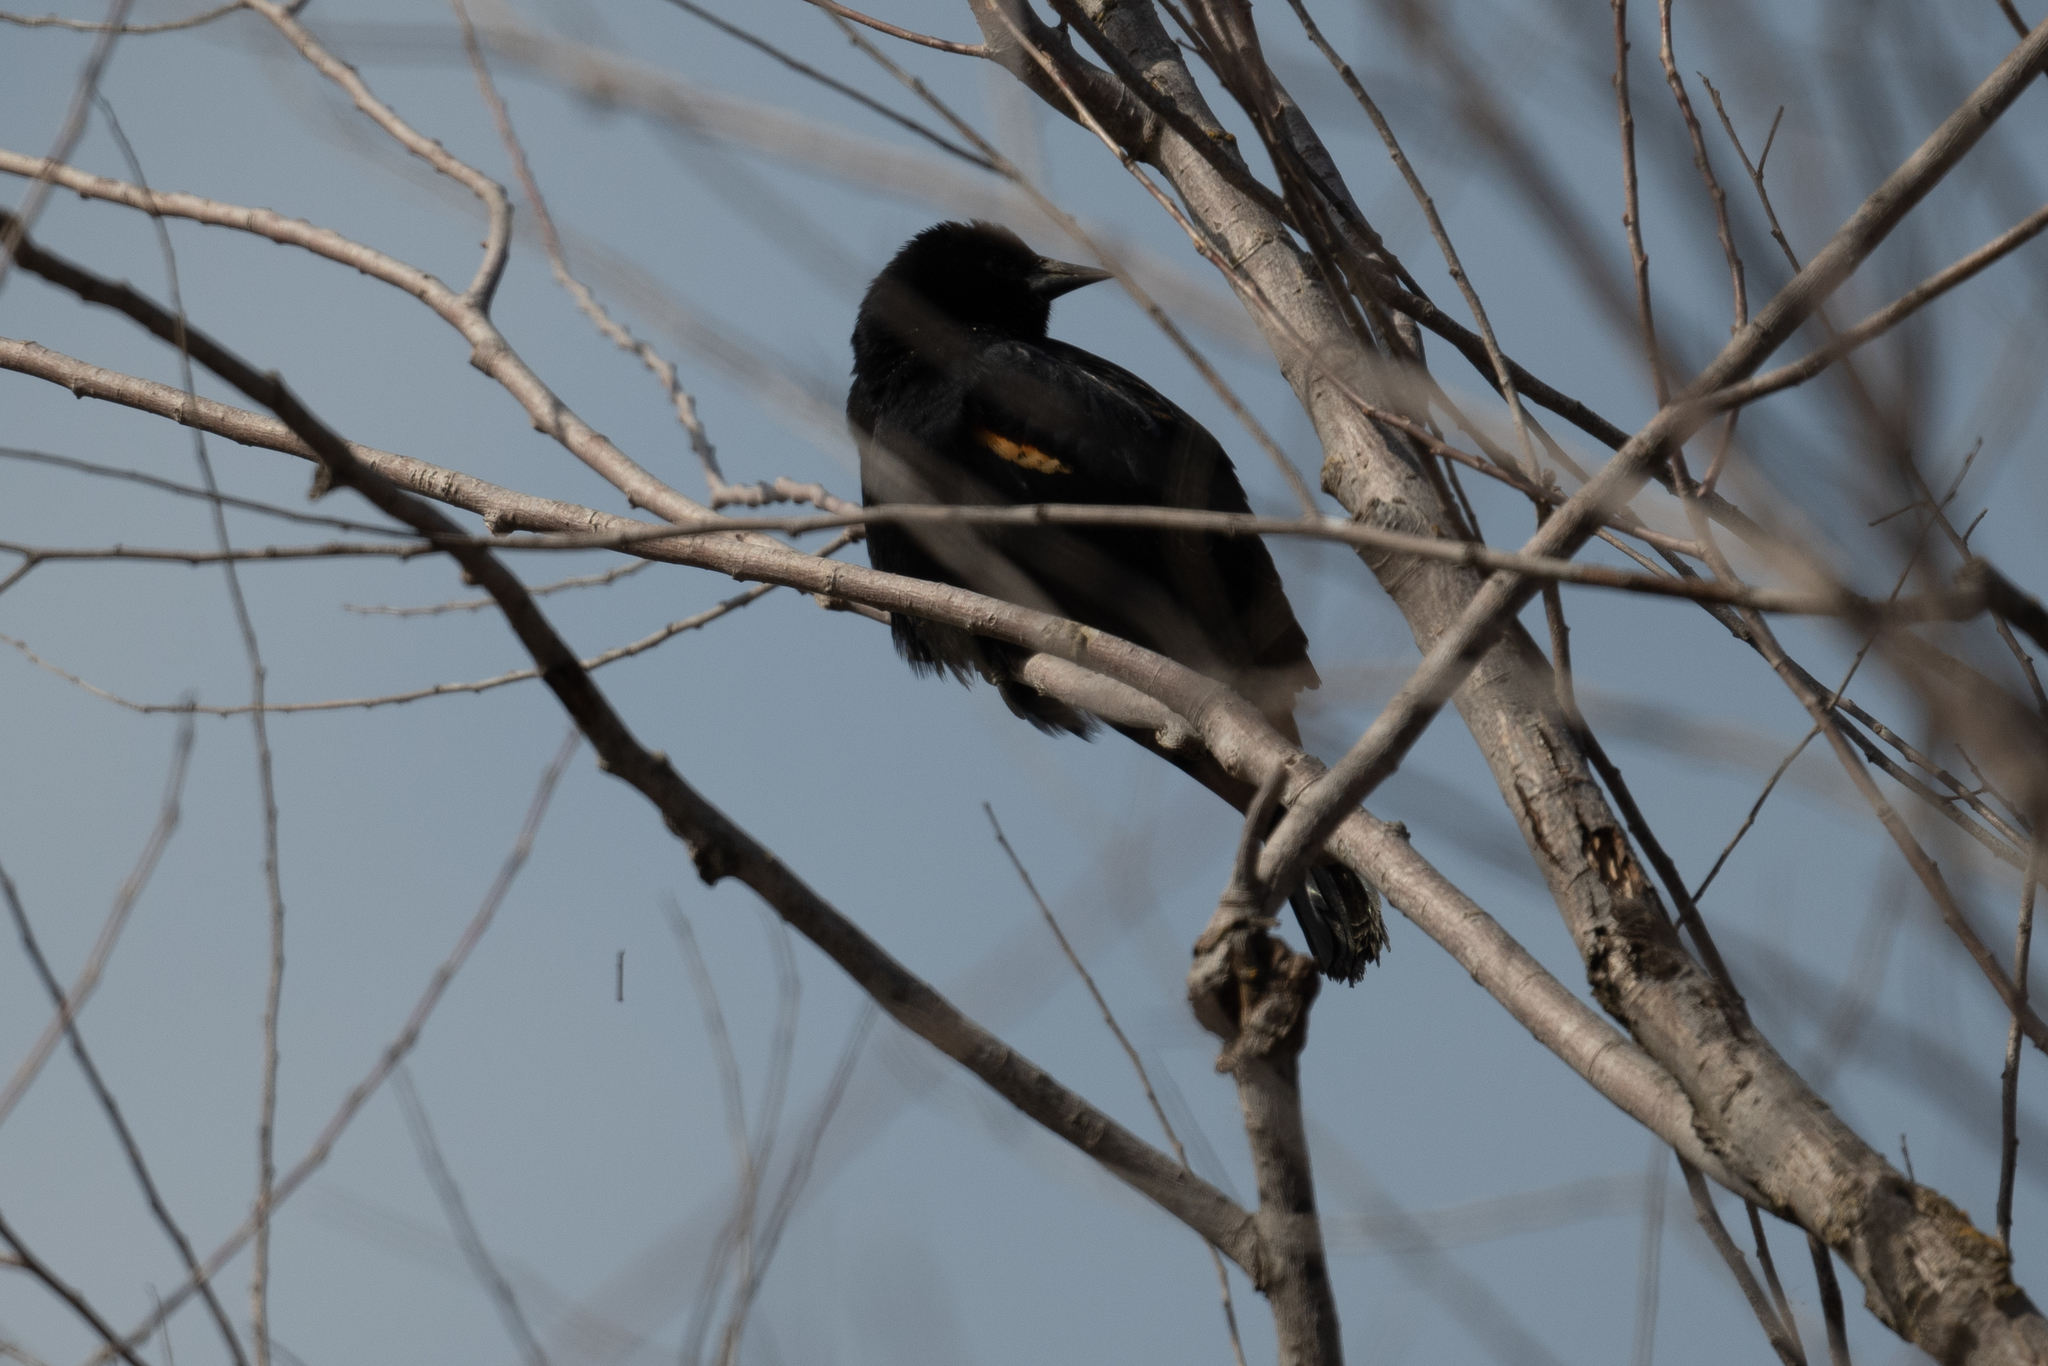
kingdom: Animalia
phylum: Chordata
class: Aves
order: Passeriformes
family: Icteridae
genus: Agelaius
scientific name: Agelaius phoeniceus
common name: Red-winged blackbird
